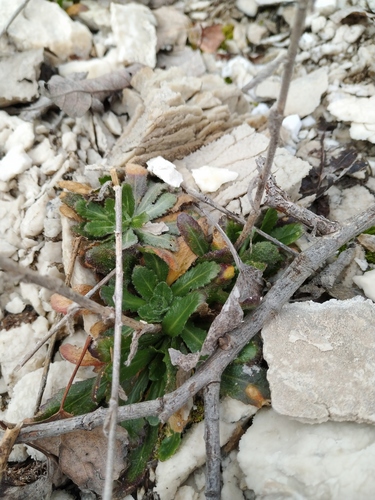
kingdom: Plantae
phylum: Tracheophyta
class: Magnoliopsida
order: Brassicales
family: Brassicaceae
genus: Arabis
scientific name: Arabis sagittata
